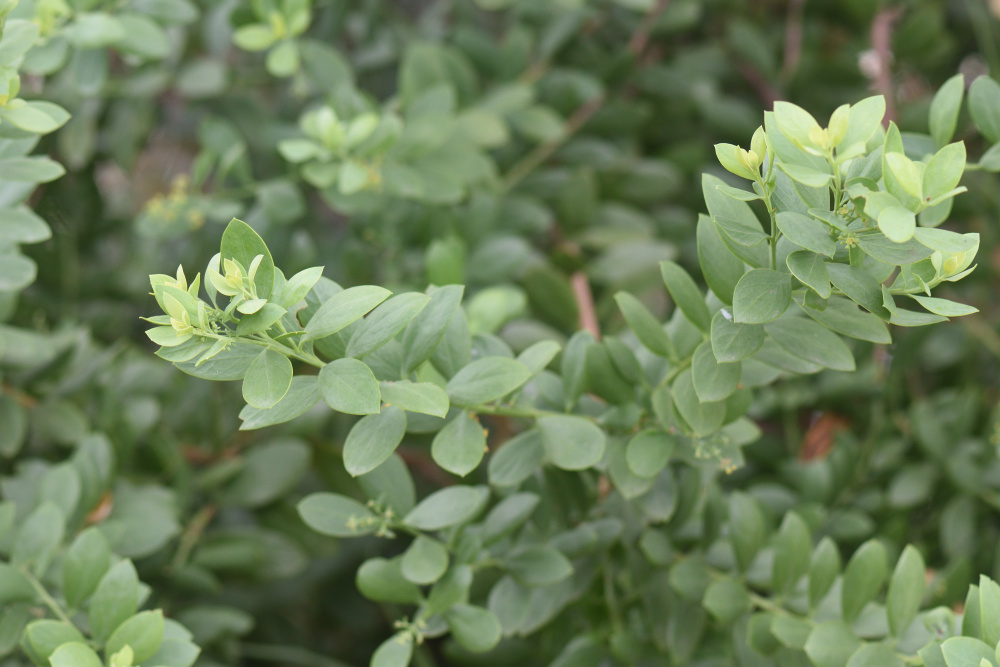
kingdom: Plantae
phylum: Tracheophyta
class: Magnoliopsida
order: Santalales
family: Santalaceae
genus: Osyris
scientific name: Osyris compressa
